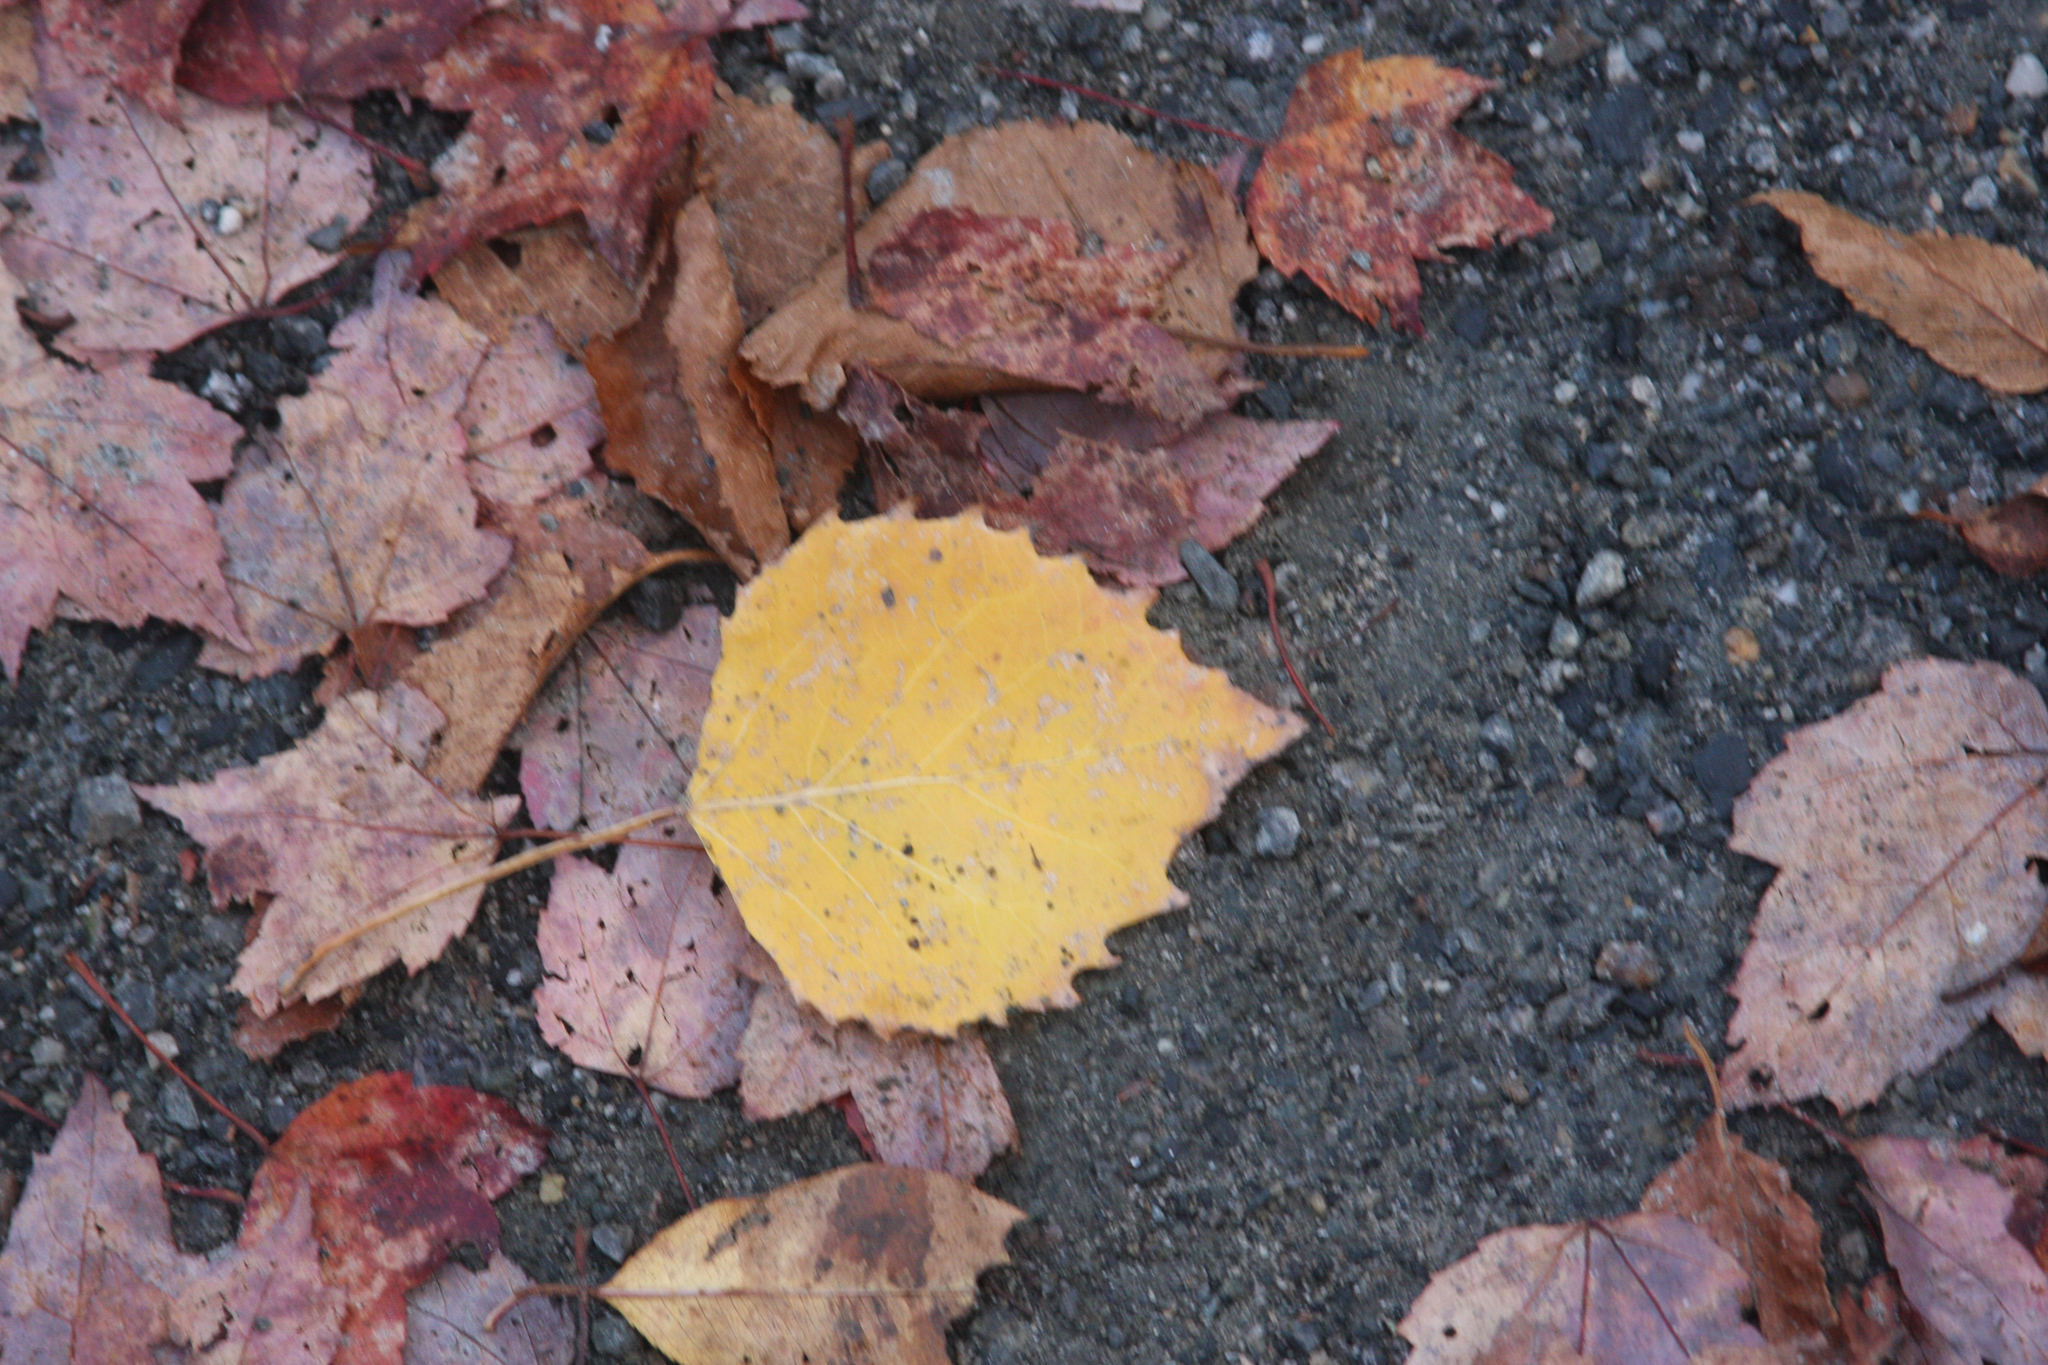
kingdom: Plantae
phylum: Tracheophyta
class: Magnoliopsida
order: Malpighiales
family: Salicaceae
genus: Populus
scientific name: Populus grandidentata
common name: Bigtooth aspen
